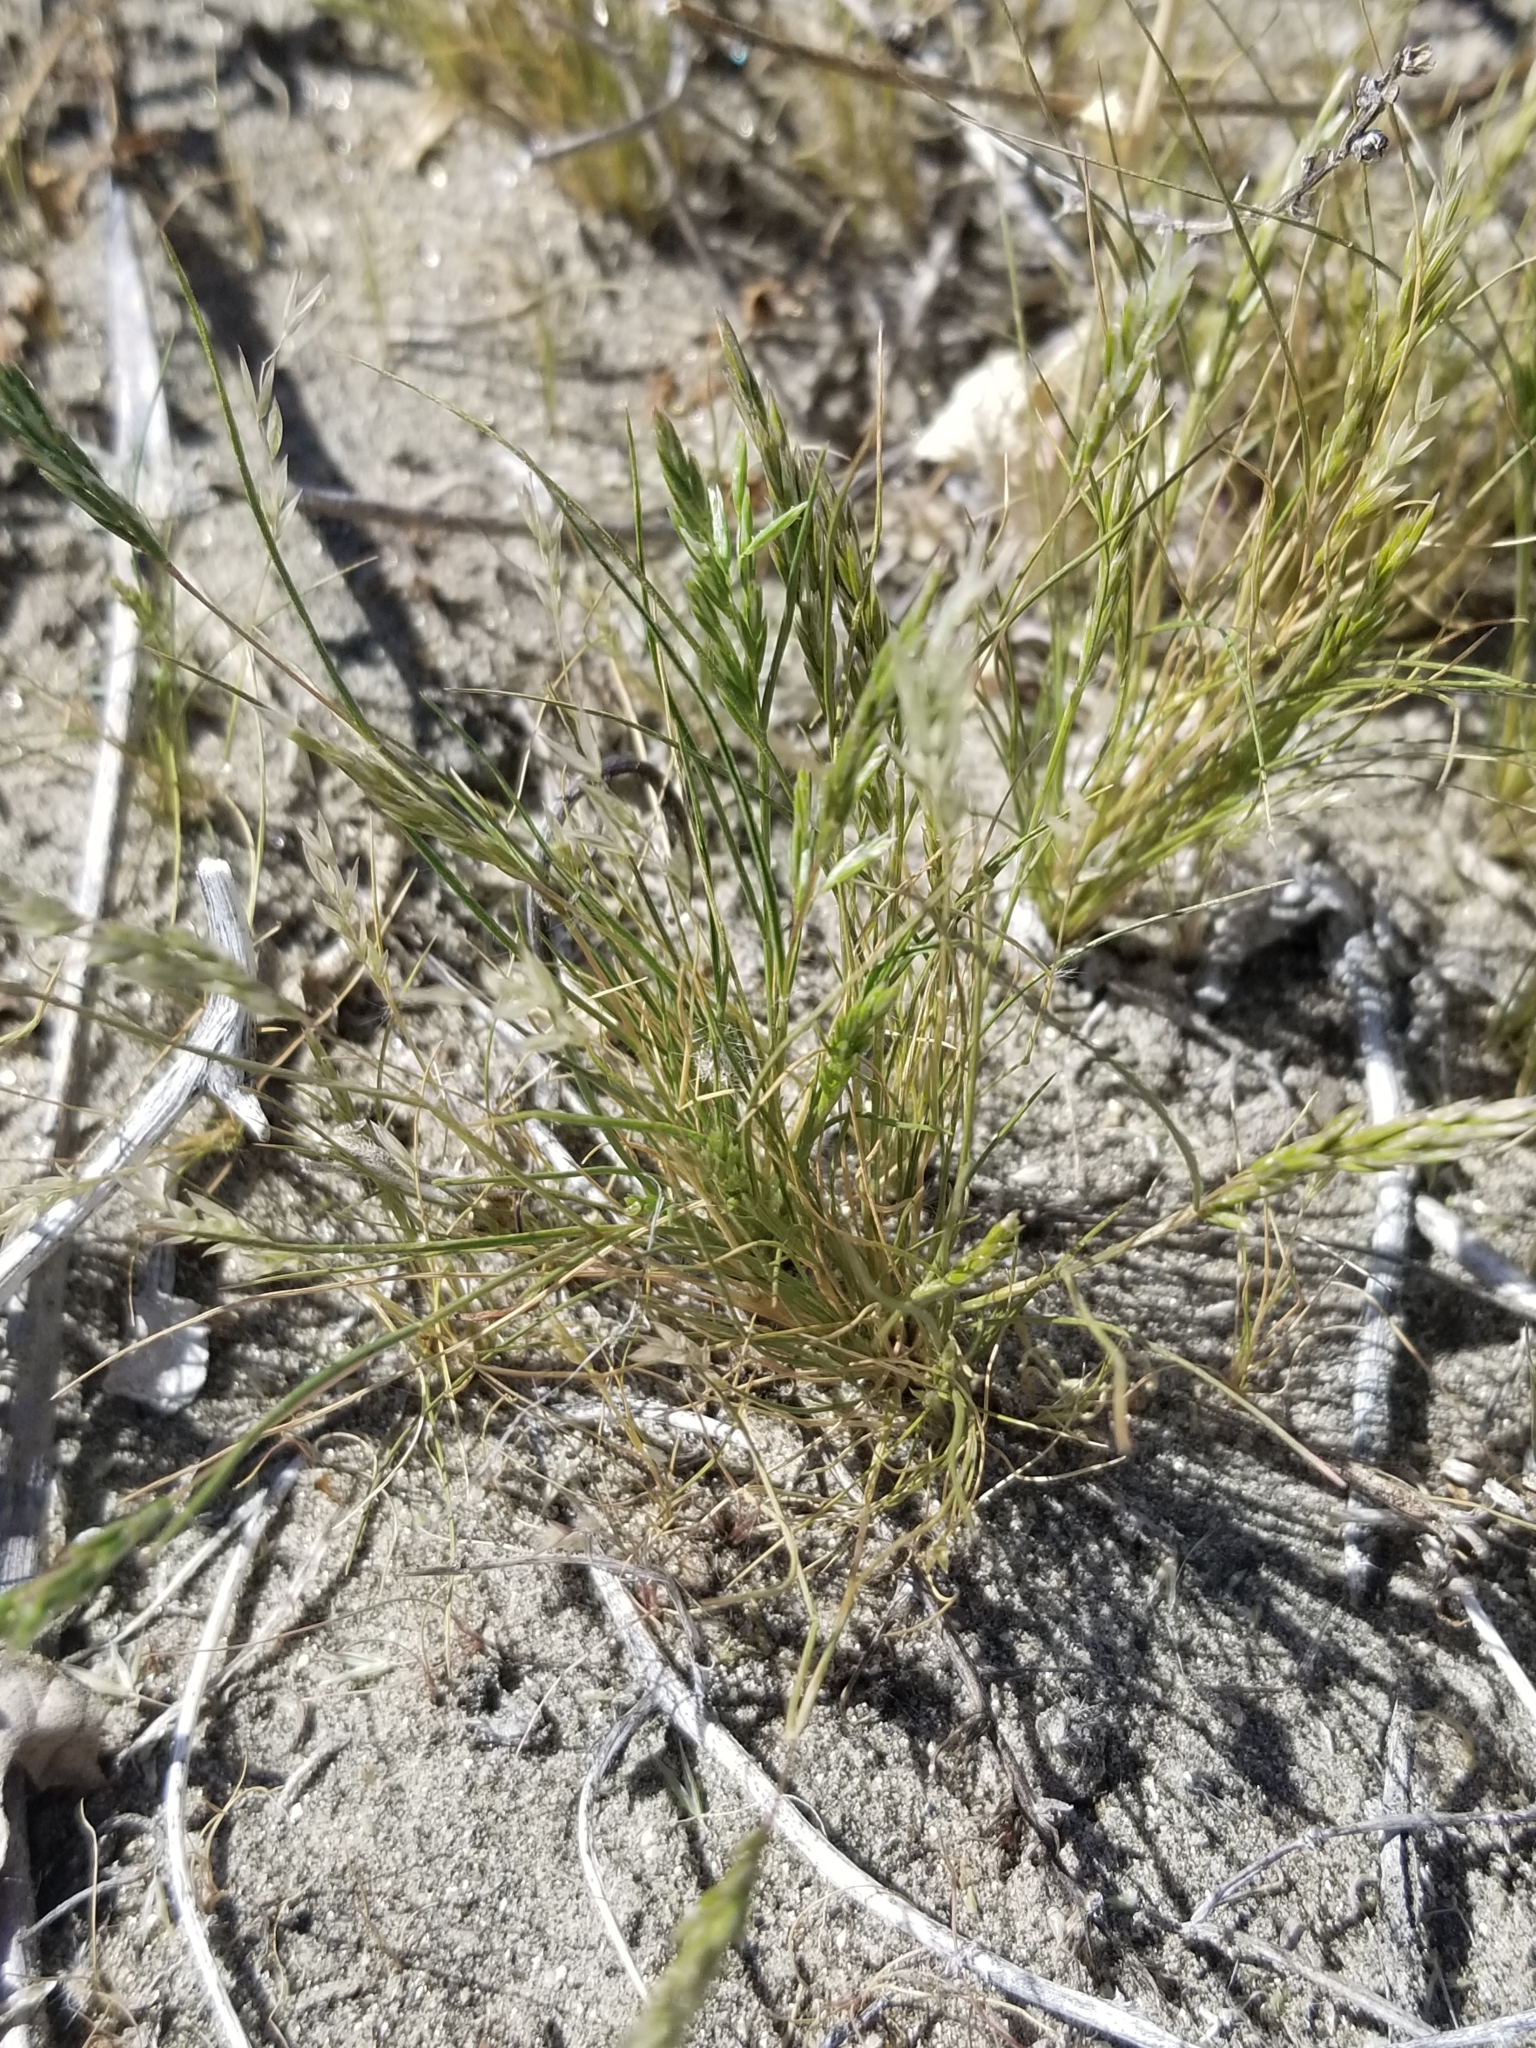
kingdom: Plantae
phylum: Tracheophyta
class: Liliopsida
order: Poales
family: Poaceae
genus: Schismus
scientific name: Schismus barbatus
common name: Kelch-grass
